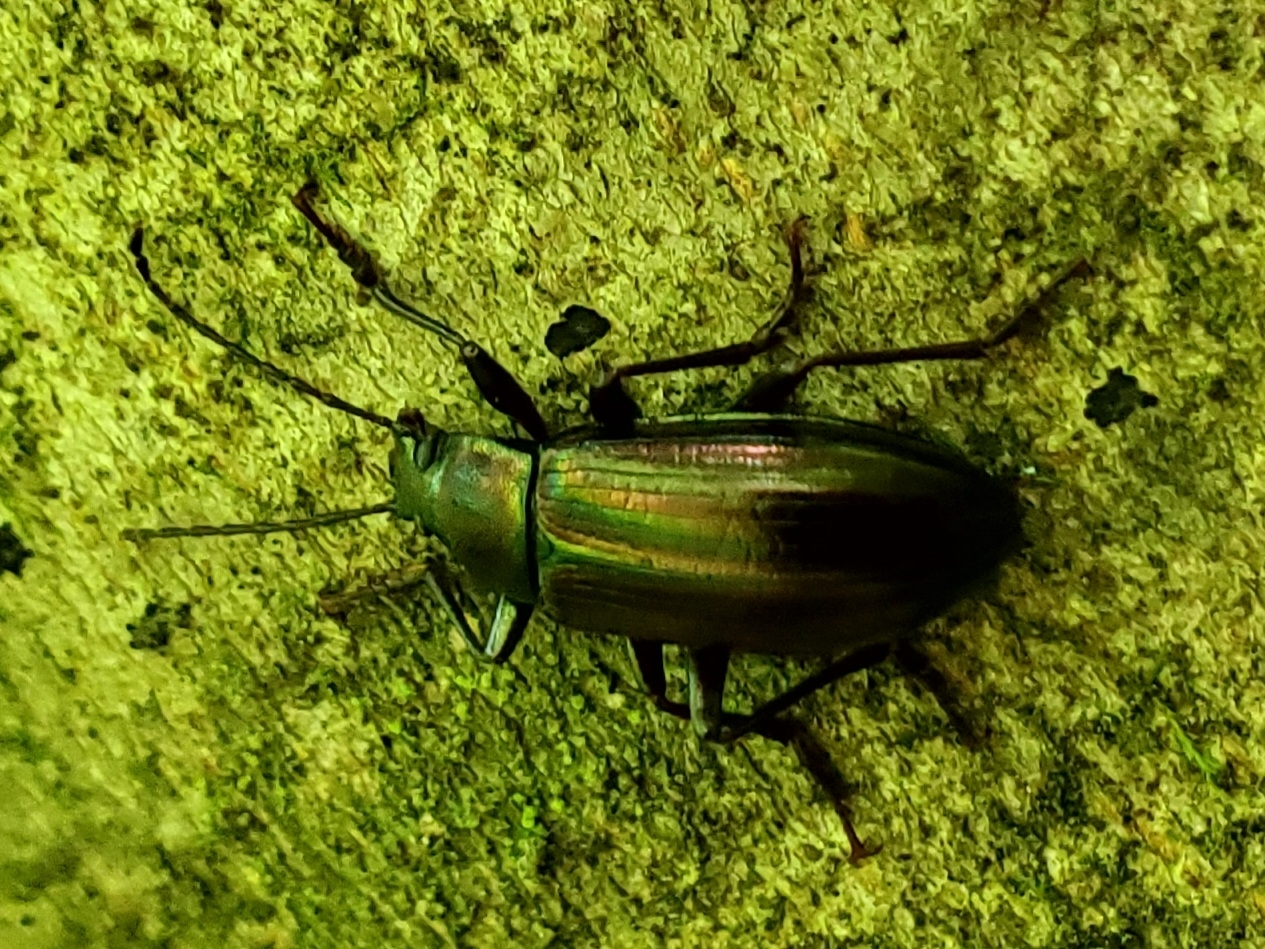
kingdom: Animalia
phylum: Arthropoda
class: Insecta
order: Coleoptera
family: Tenebrionidae
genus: Tarpela
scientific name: Tarpela micans
